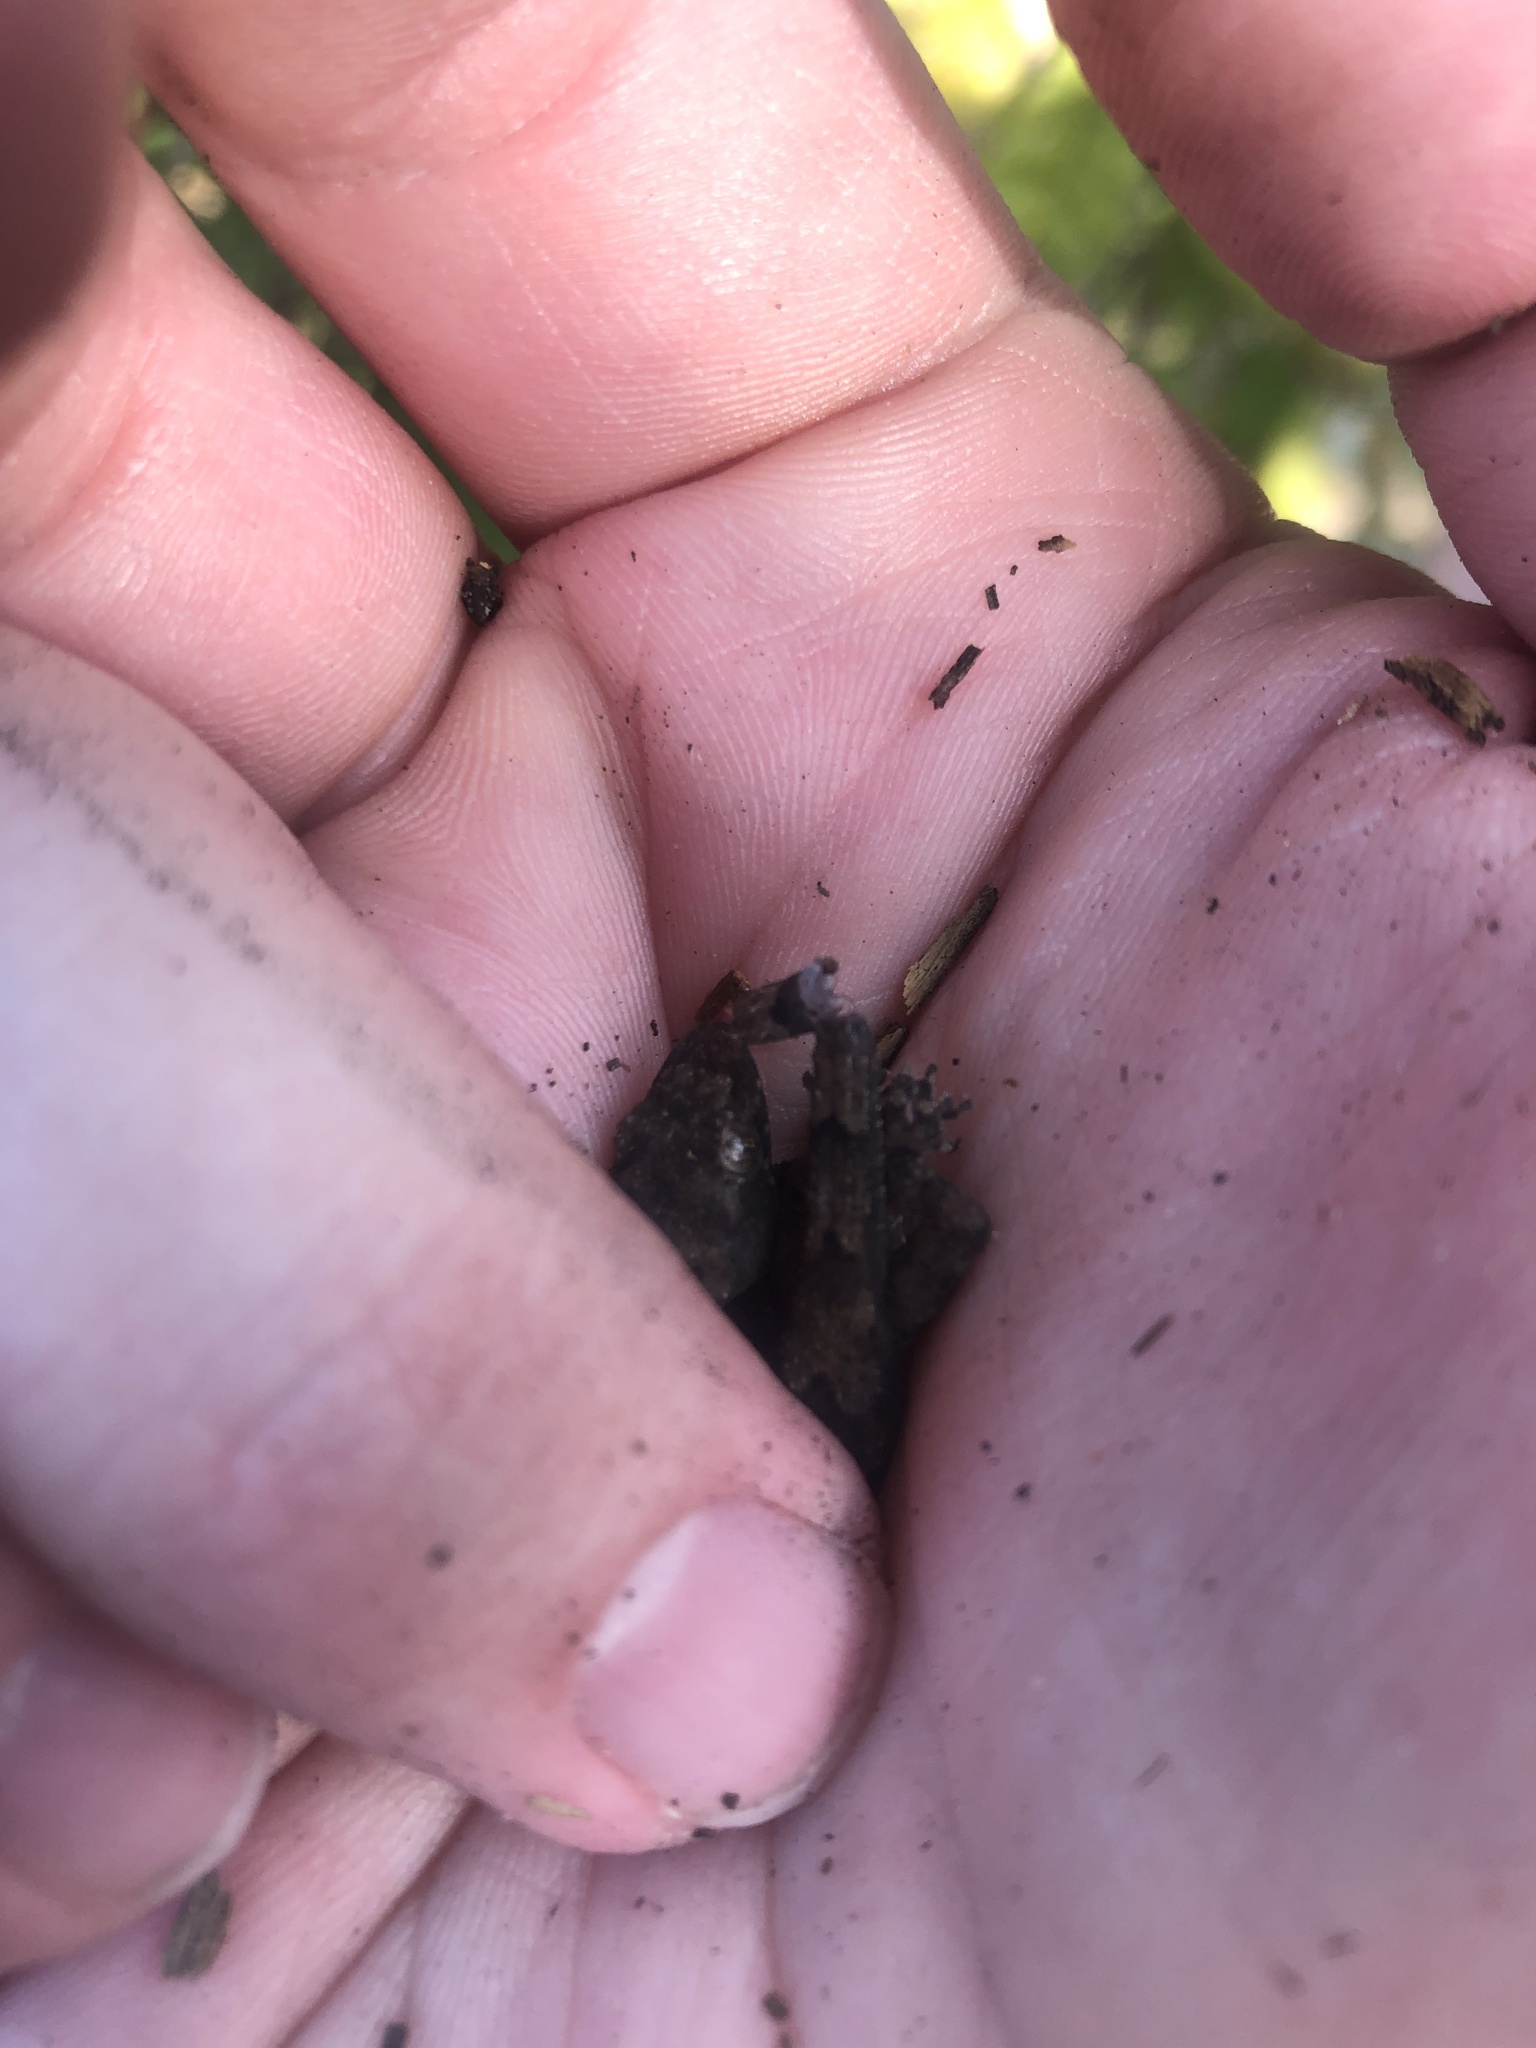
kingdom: Animalia
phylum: Chordata
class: Squamata
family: Gekkonidae
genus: Hemidactylus
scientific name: Hemidactylus mabouia
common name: House gecko
